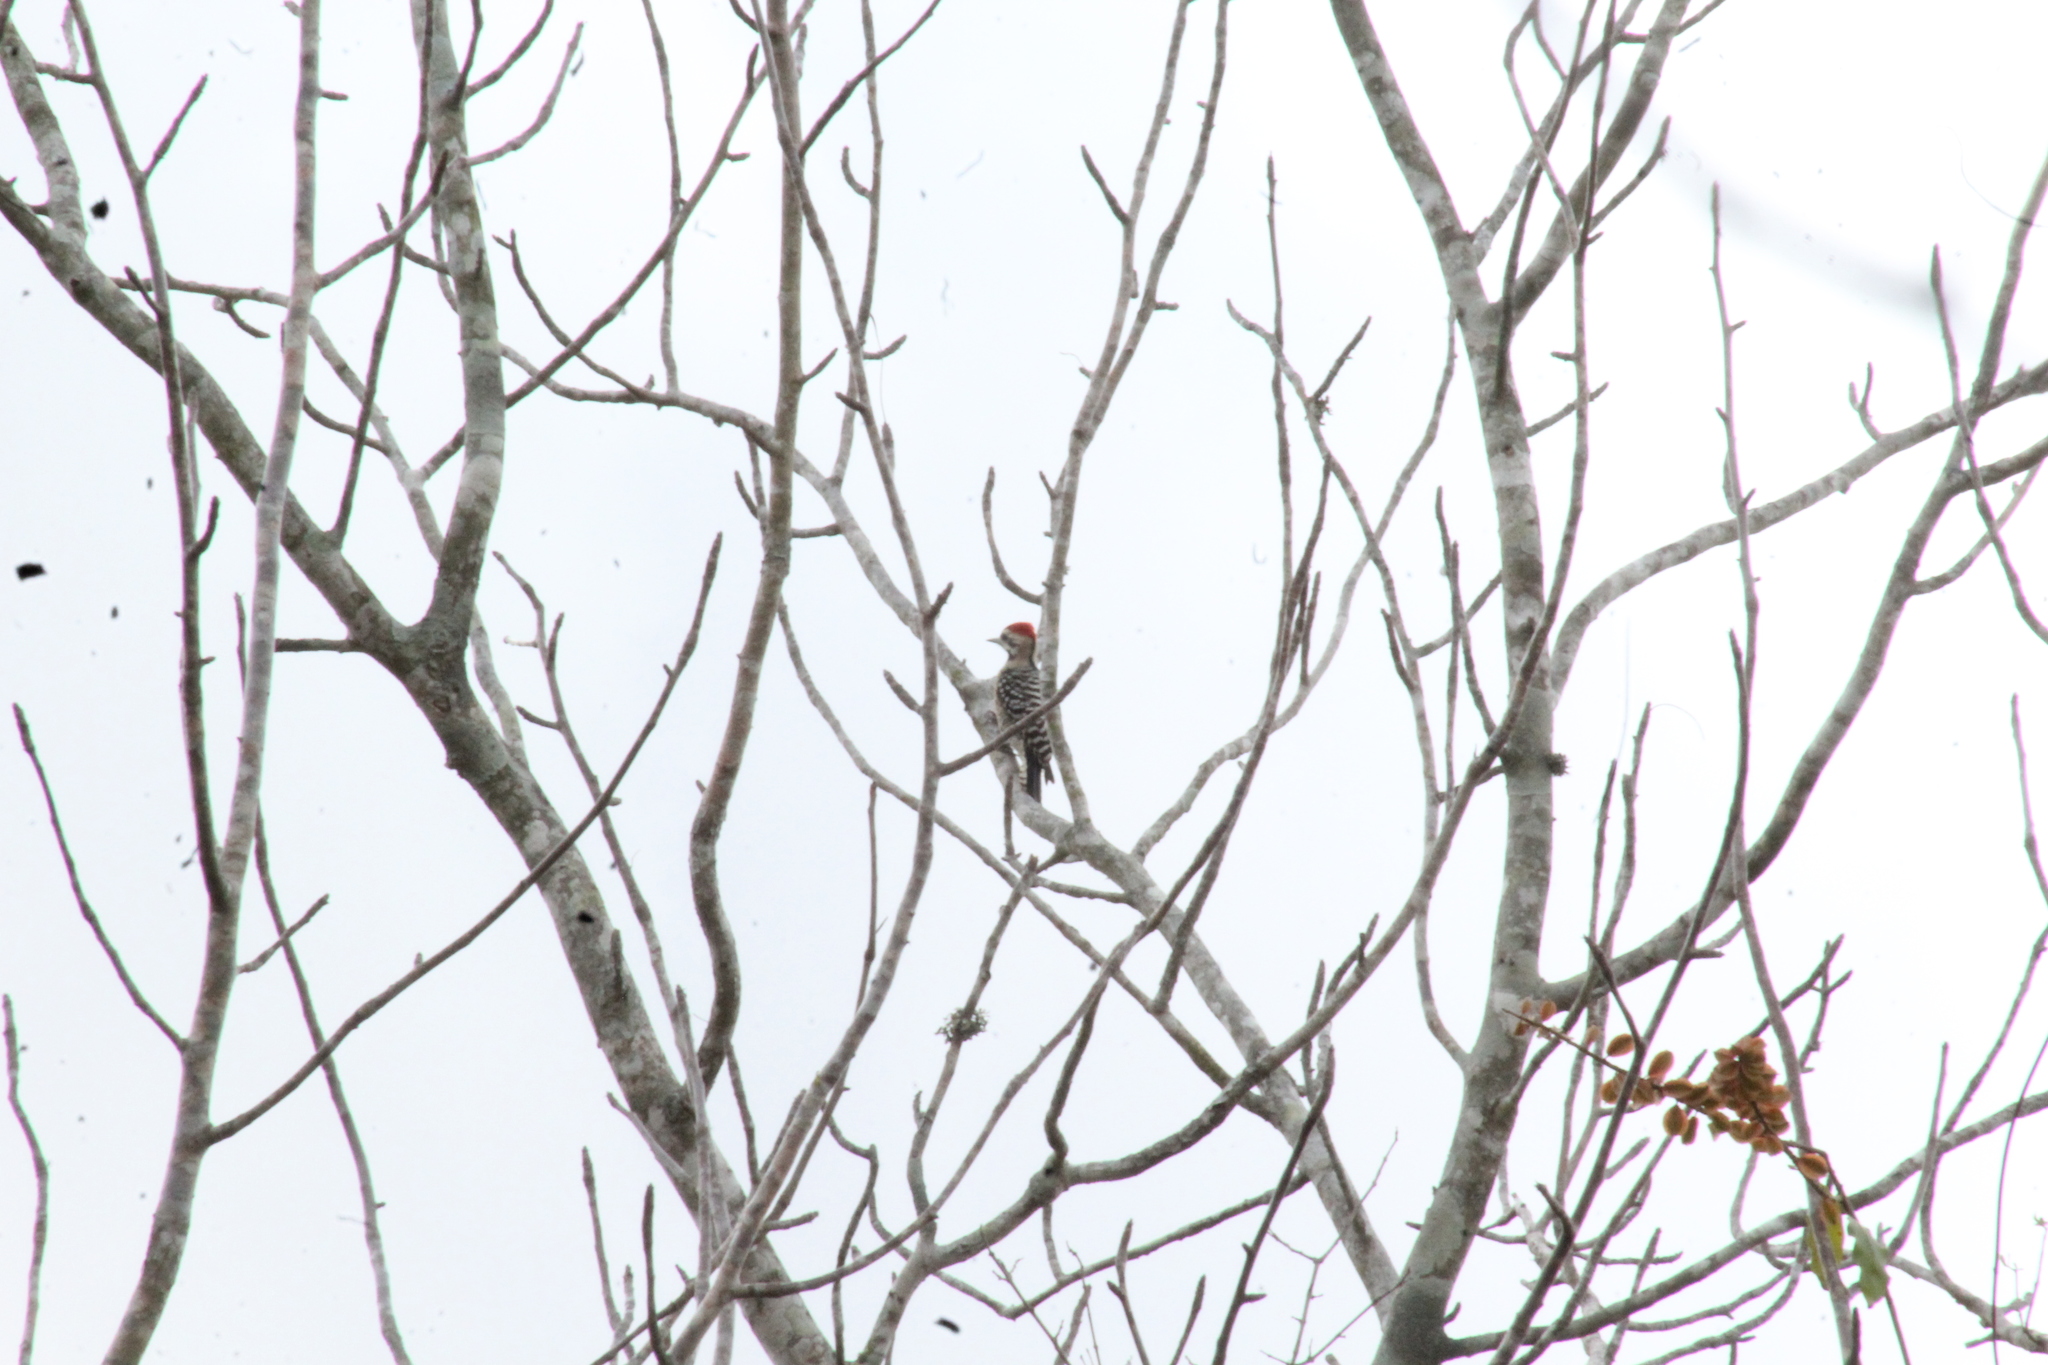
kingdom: Animalia
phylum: Chordata
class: Aves
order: Piciformes
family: Picidae
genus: Dryobates
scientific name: Dryobates scalaris
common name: Ladder-backed woodpecker
